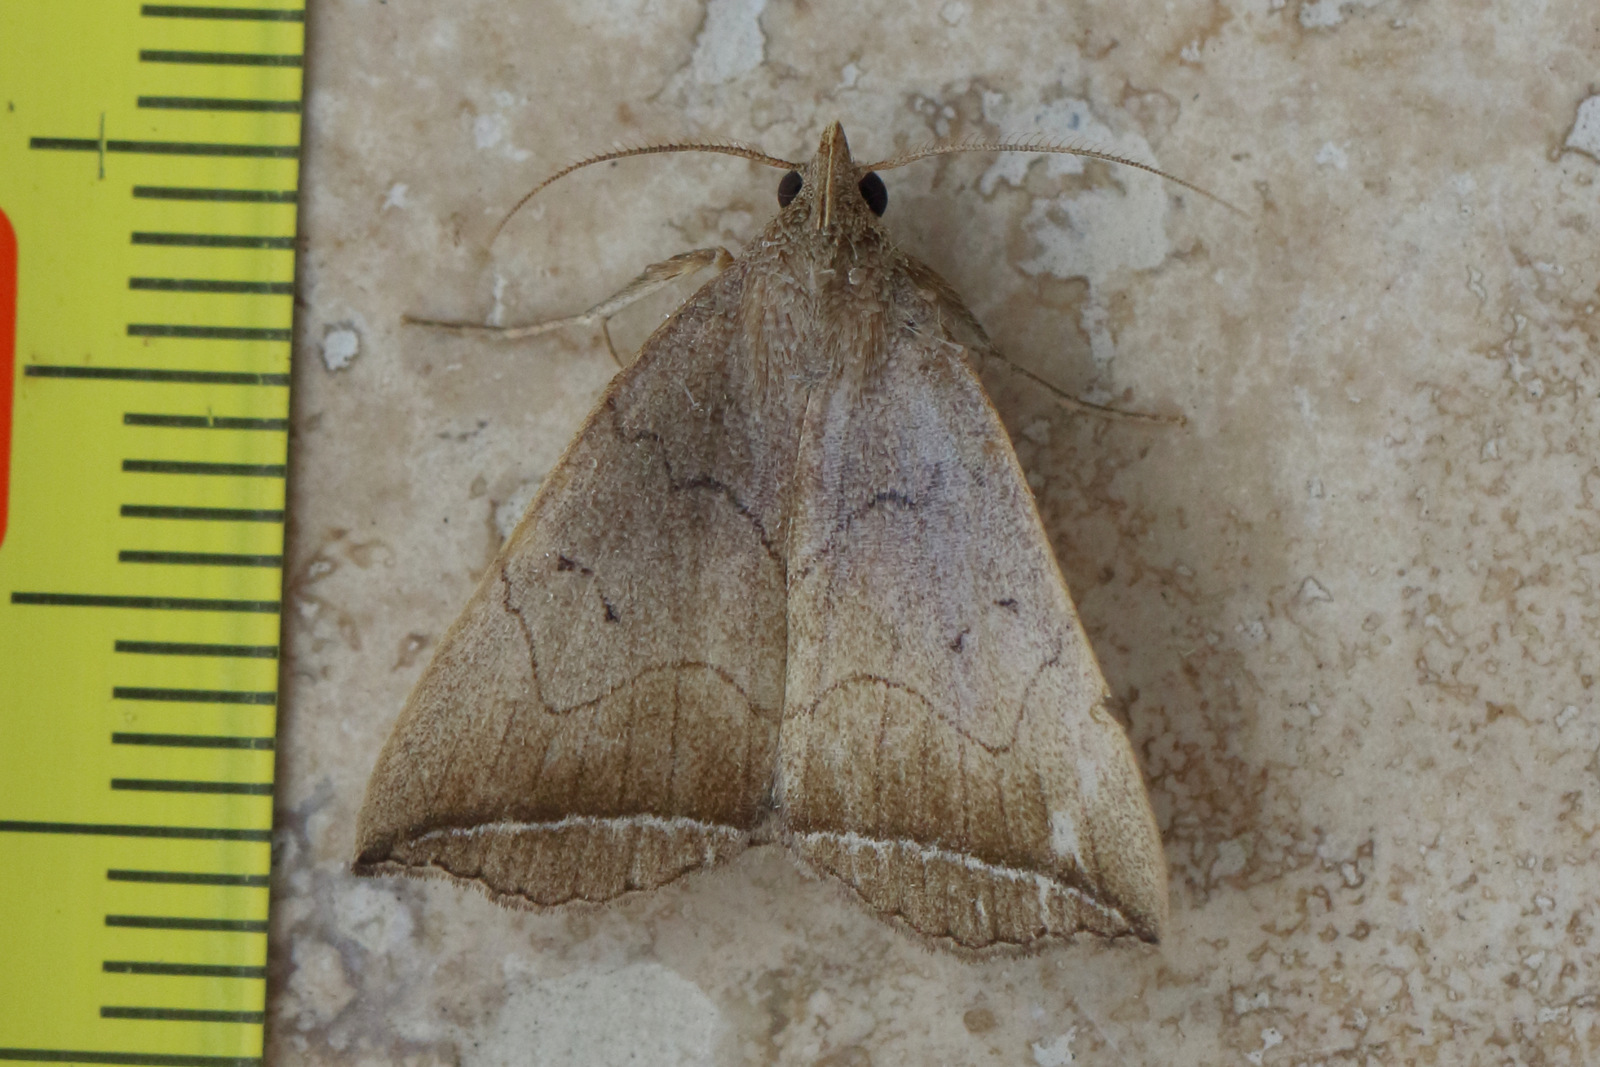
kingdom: Animalia
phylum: Arthropoda
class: Insecta
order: Lepidoptera
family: Erebidae
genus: Simplicia
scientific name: Simplicia armatalis
